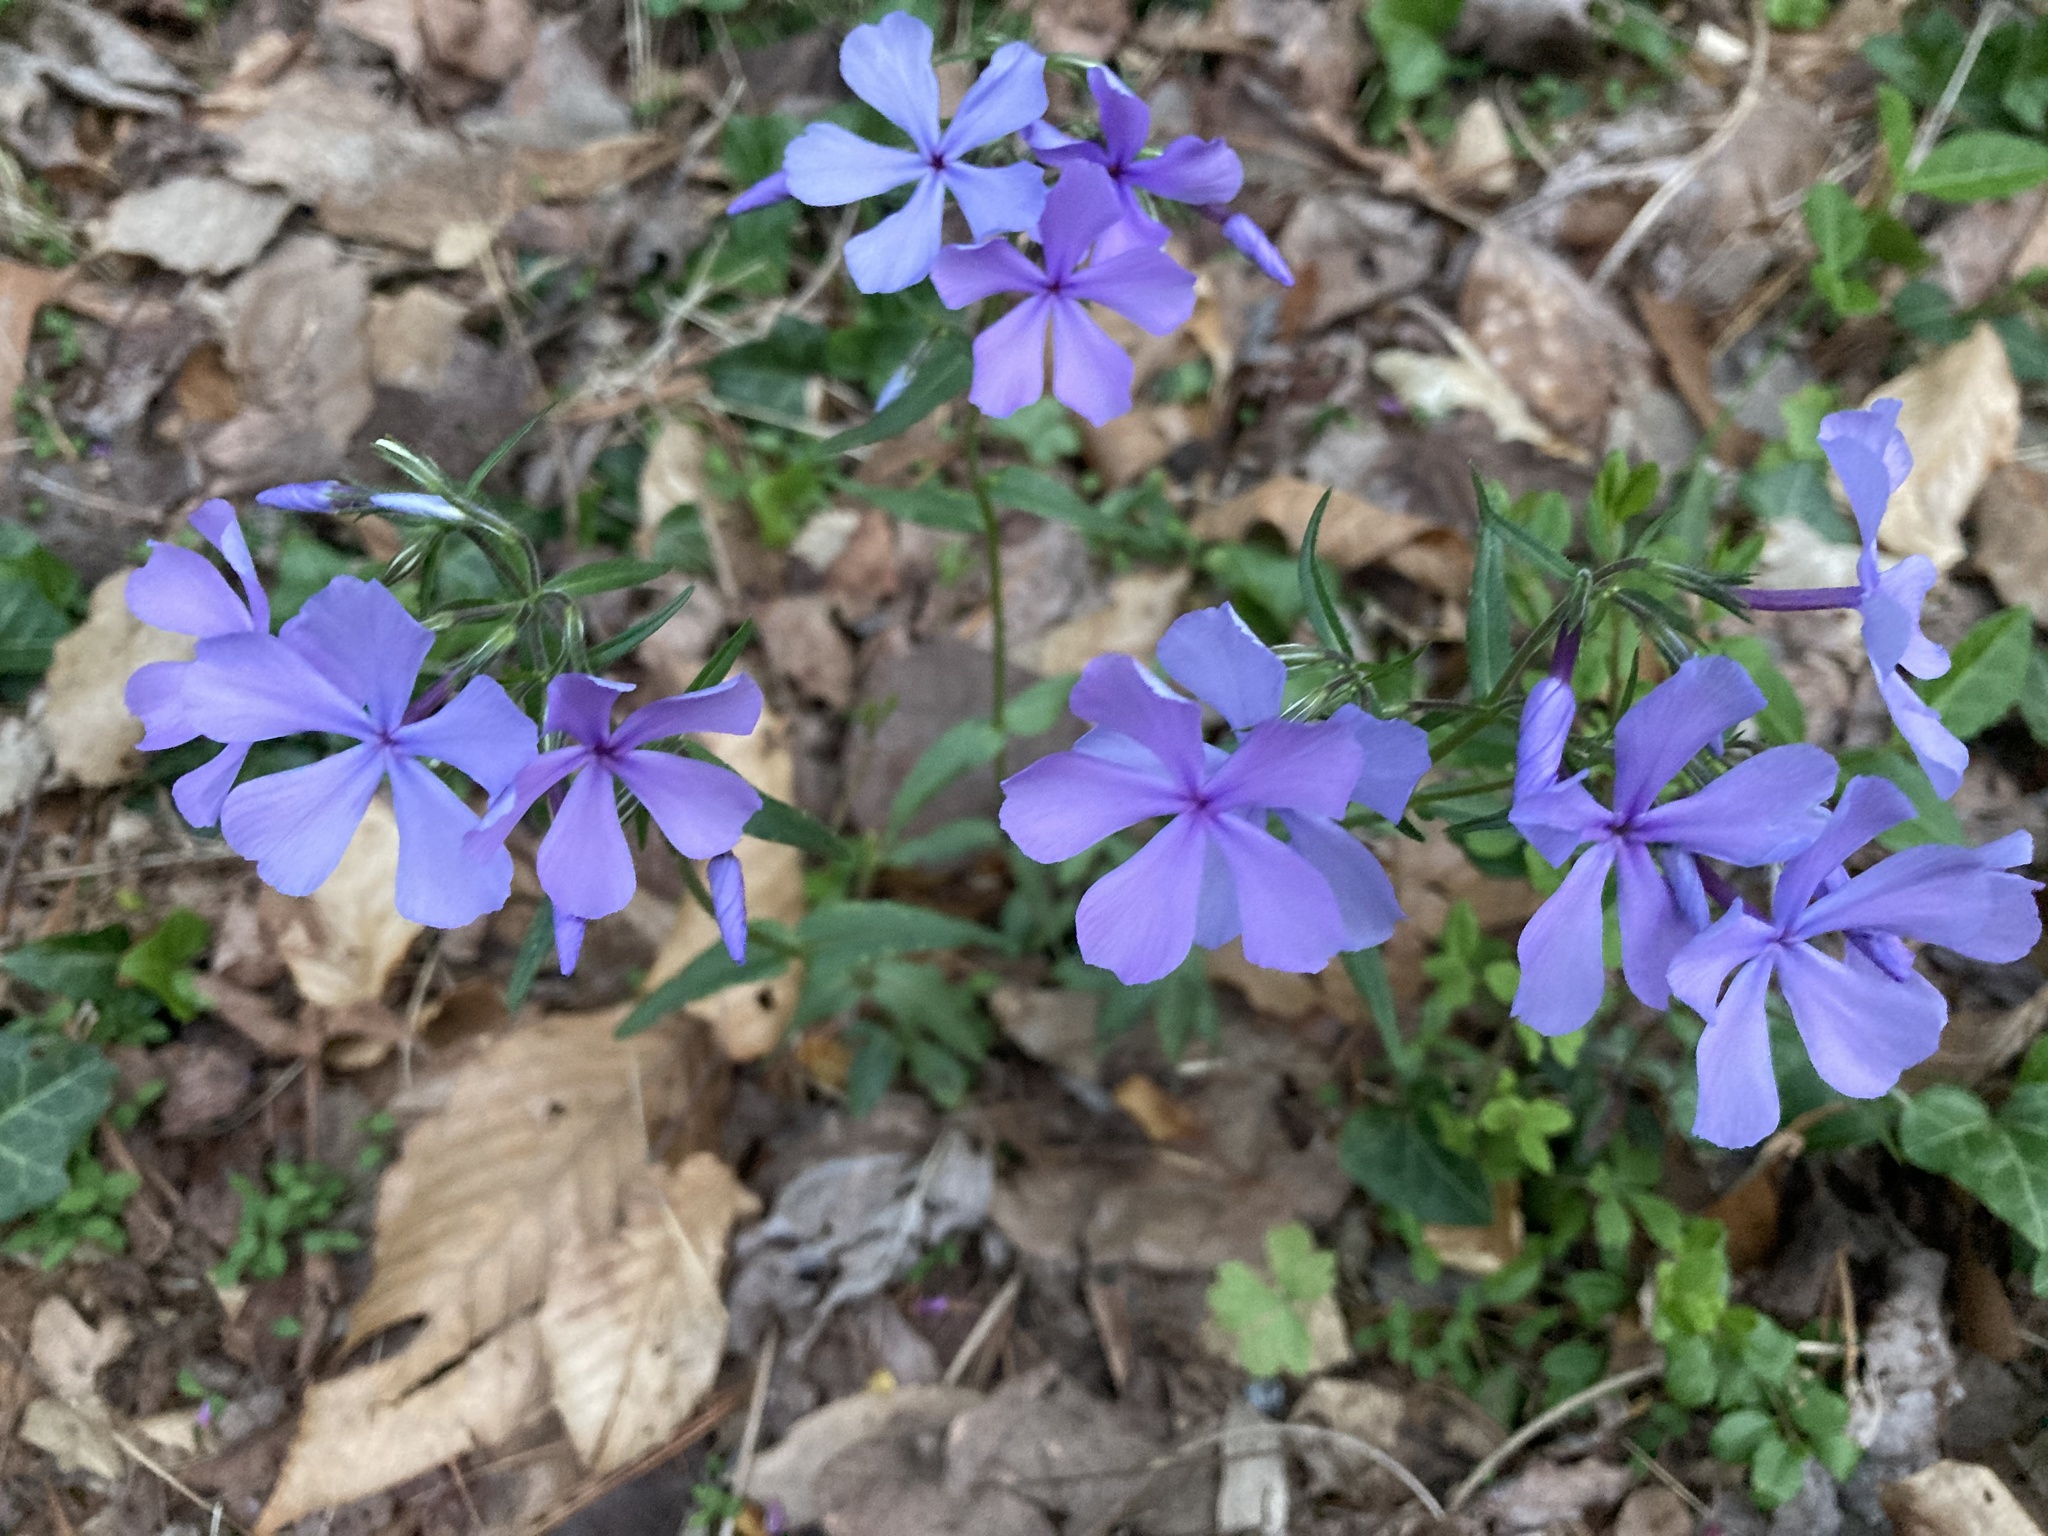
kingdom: Plantae
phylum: Tracheophyta
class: Magnoliopsida
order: Ericales
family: Polemoniaceae
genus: Phlox
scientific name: Phlox divaricata
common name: Blue phlox
